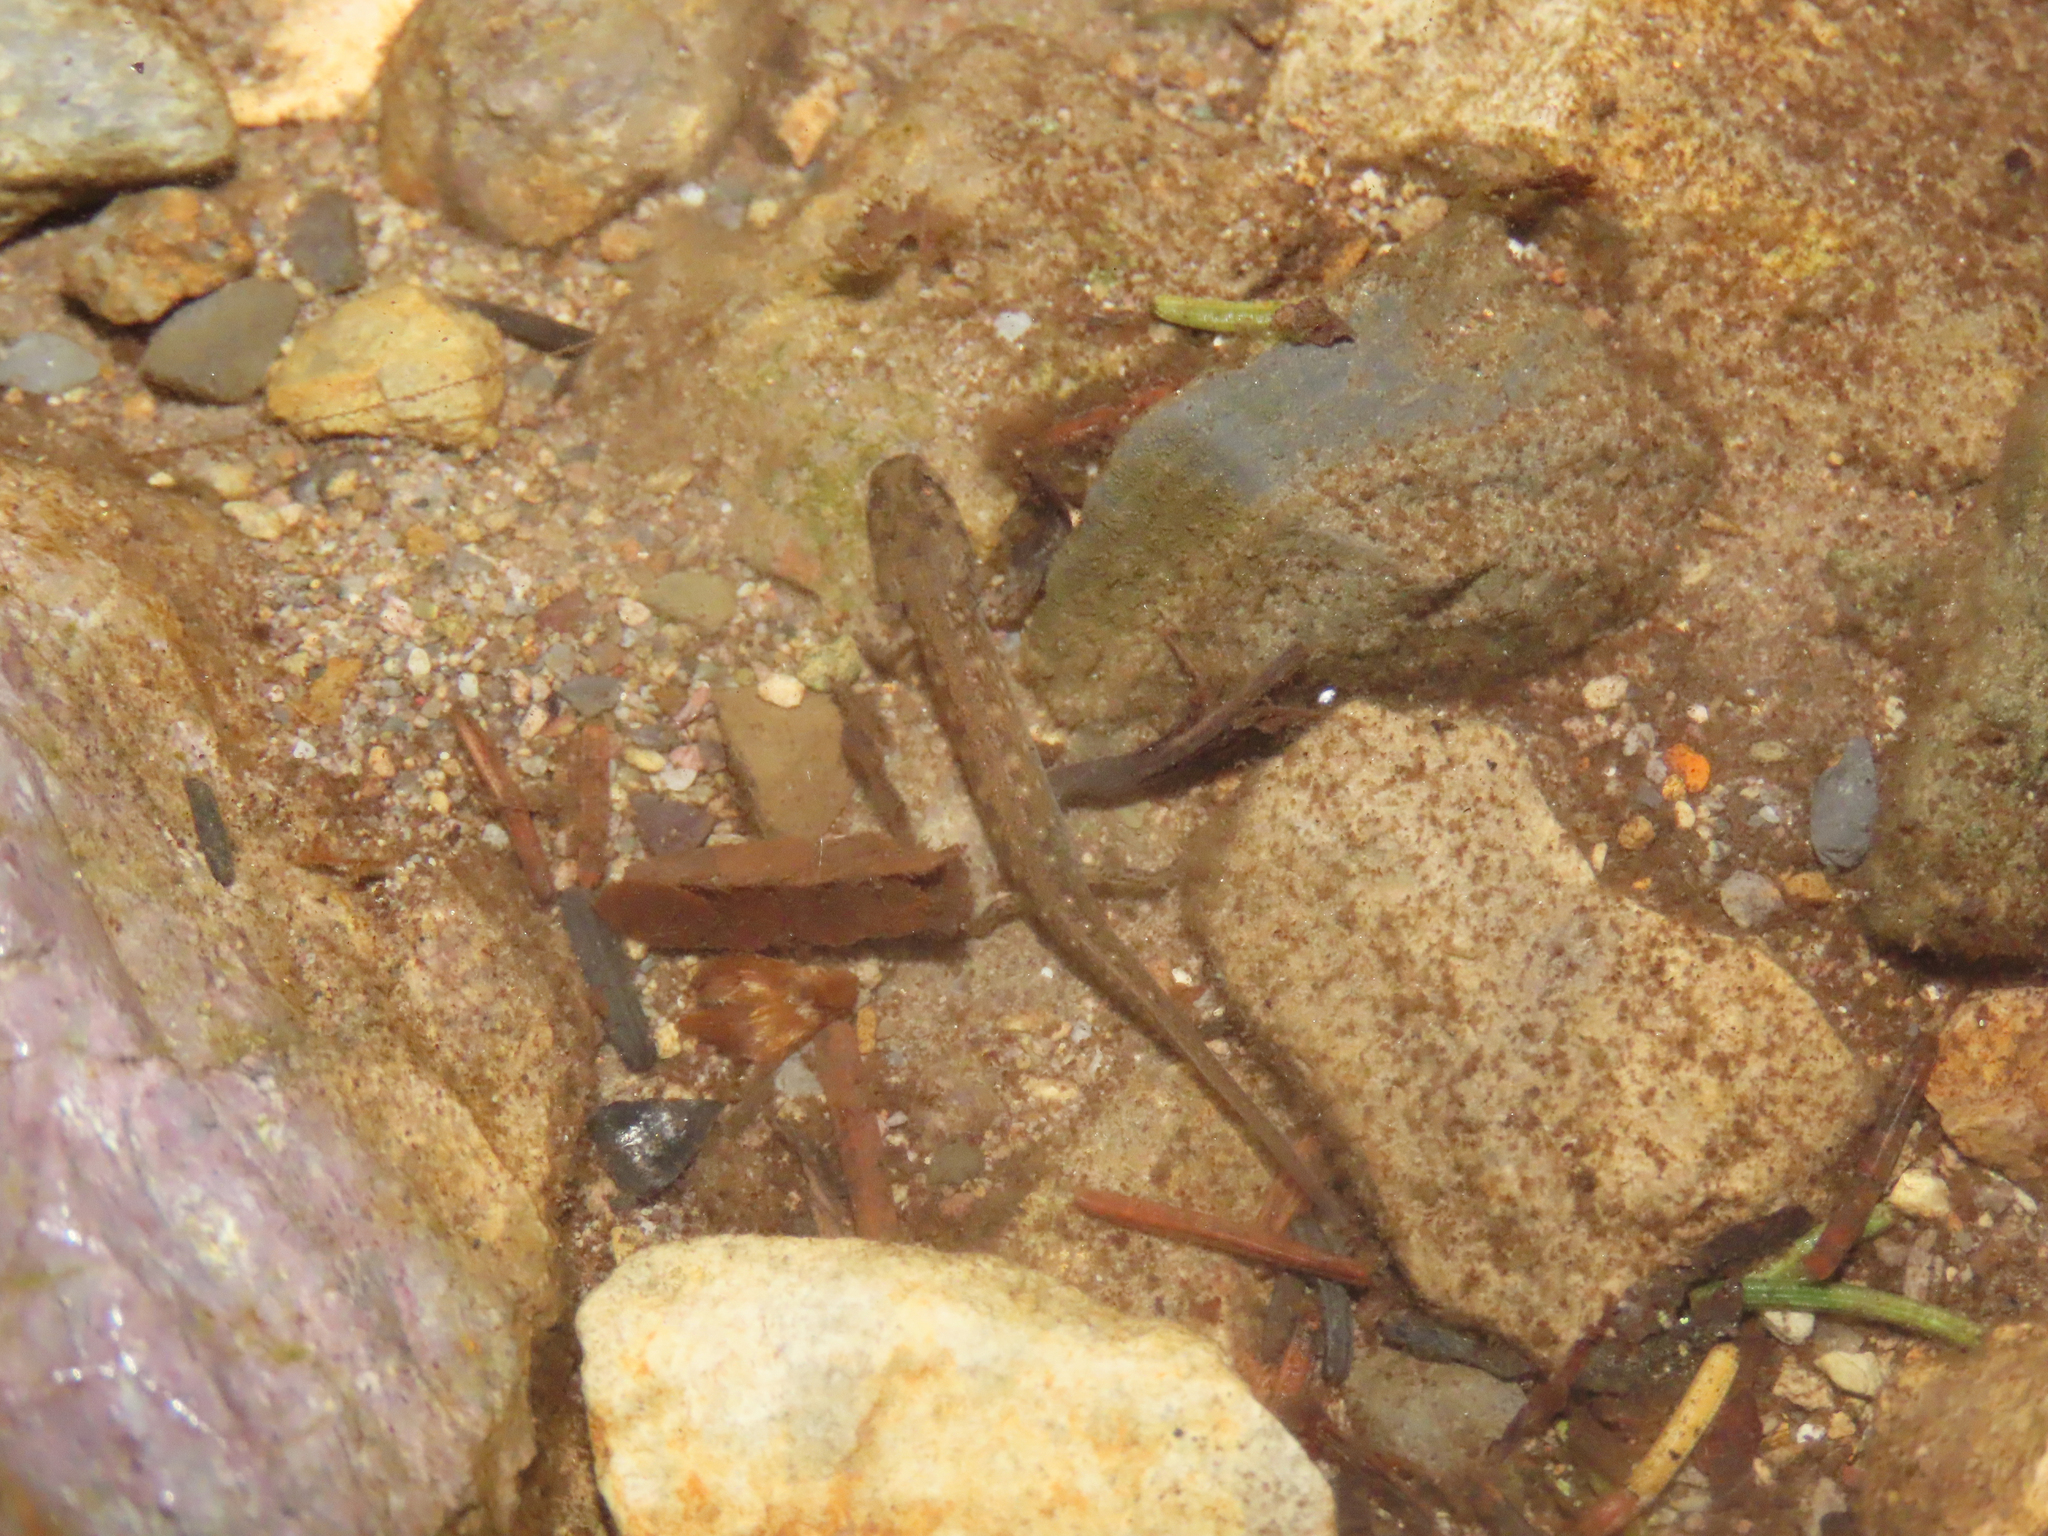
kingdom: Animalia
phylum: Chordata
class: Amphibia
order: Caudata
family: Plethodontidae
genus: Eurycea
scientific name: Eurycea wilderae
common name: Blue ridge two-lined salamander
